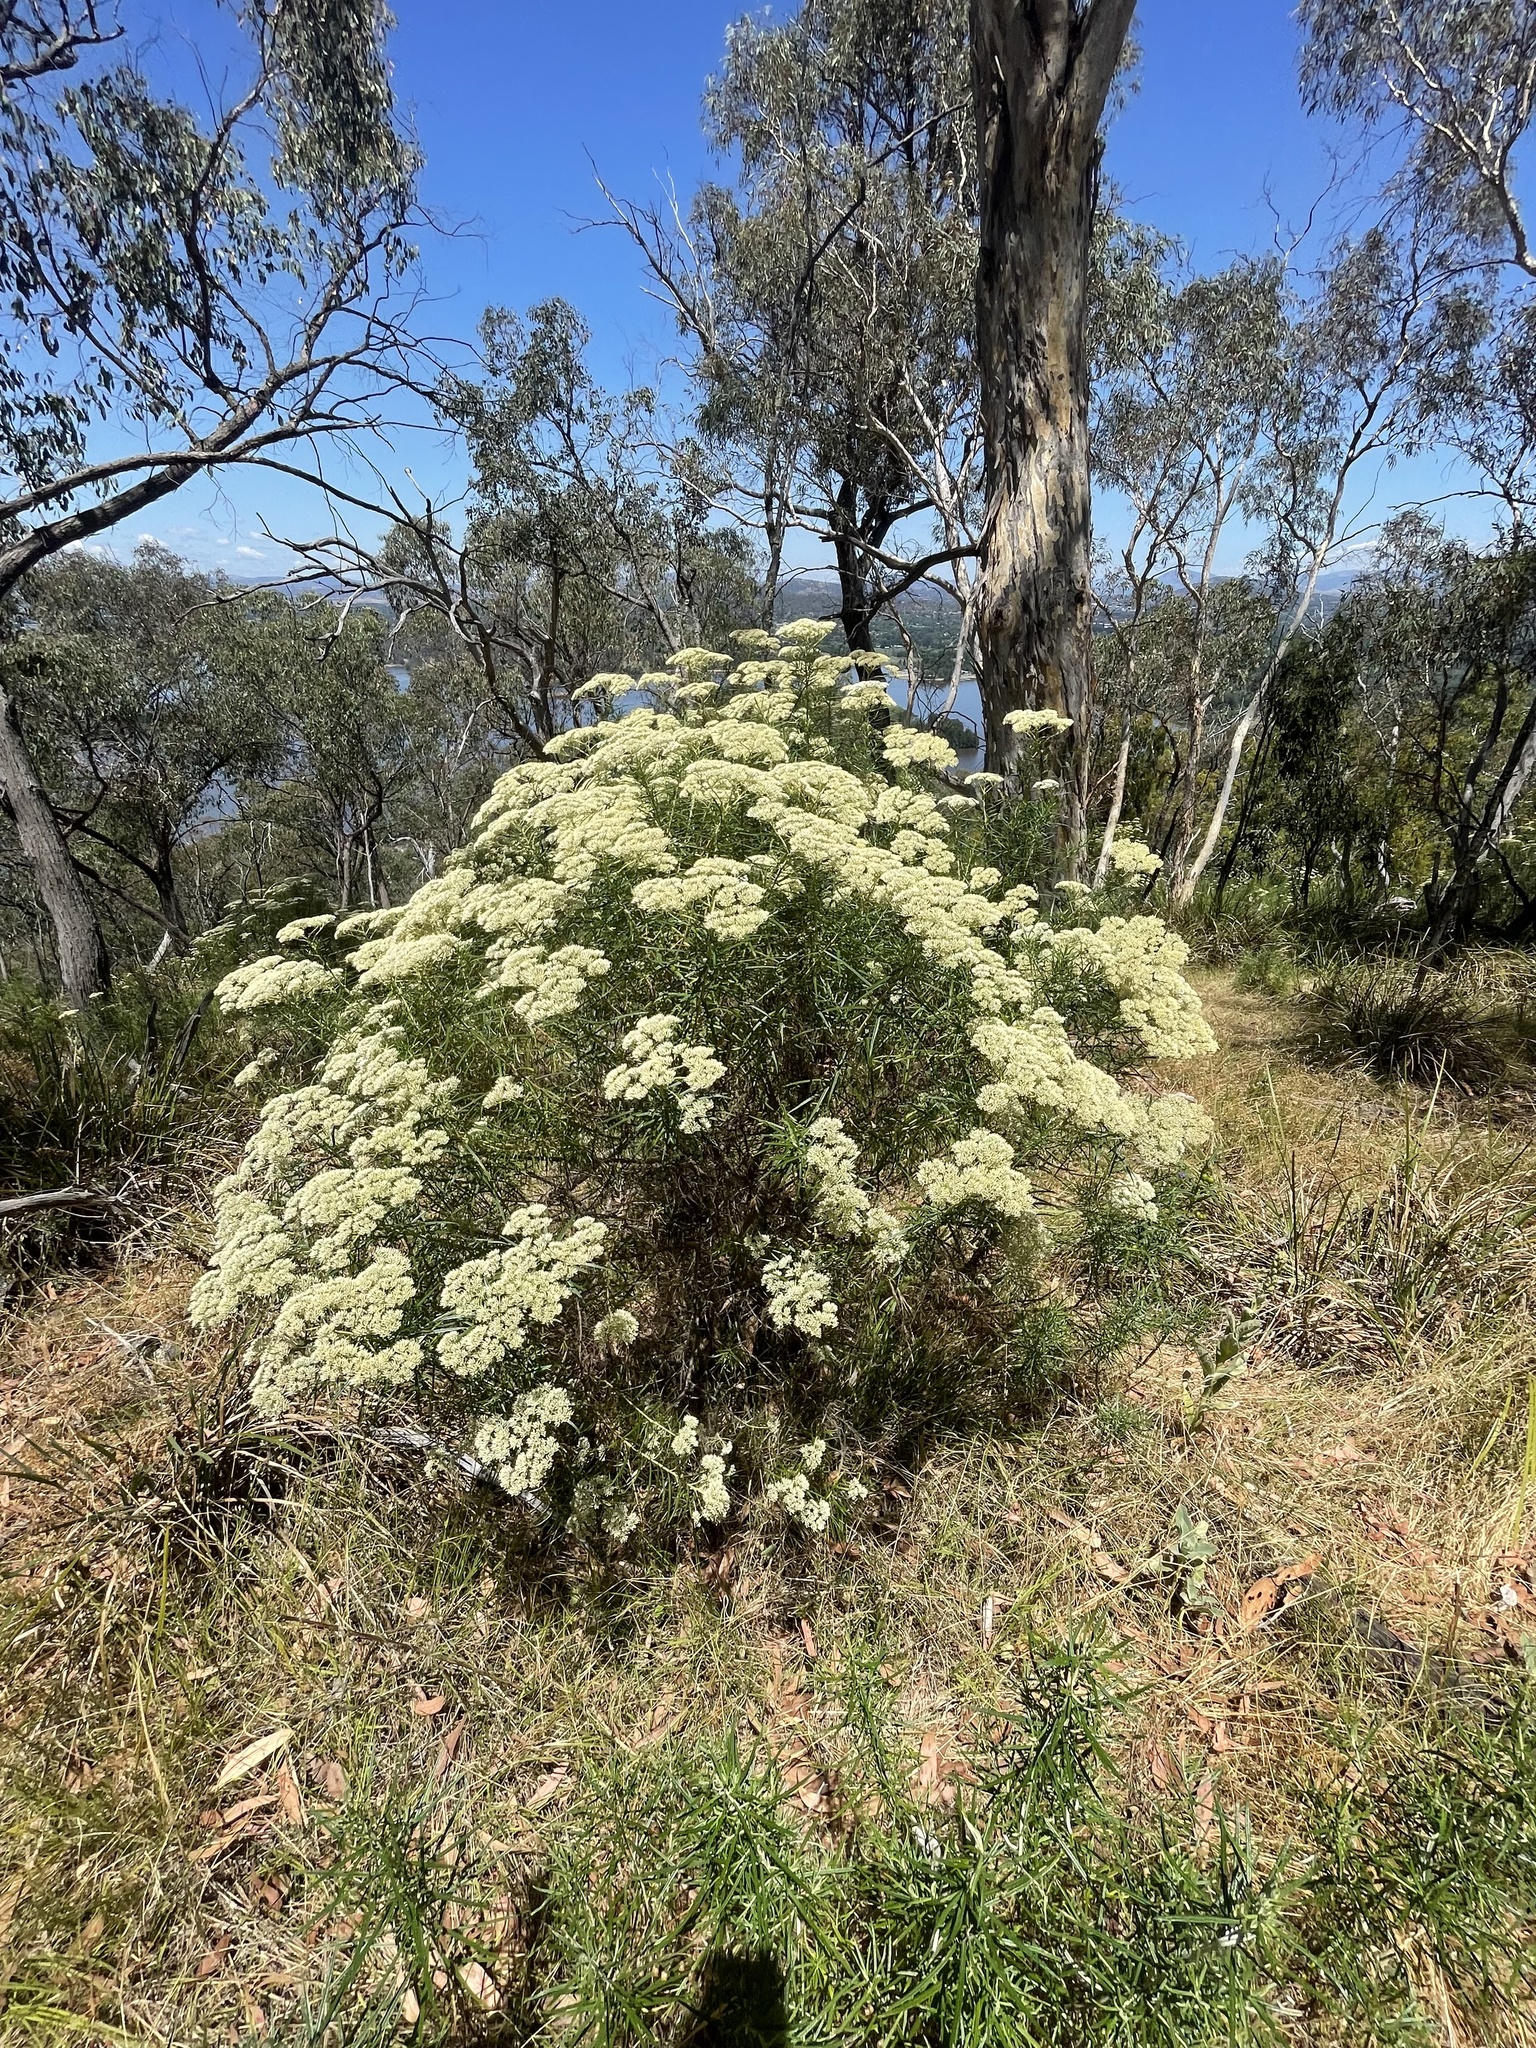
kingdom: Plantae
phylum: Tracheophyta
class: Magnoliopsida
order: Asterales
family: Asteraceae
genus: Cassinia
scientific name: Cassinia longifolia
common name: Longleaf-dogwood
